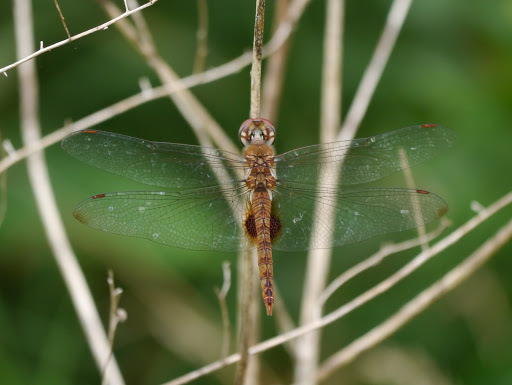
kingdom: Animalia
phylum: Arthropoda
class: Insecta
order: Odonata
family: Libellulidae
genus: Pantala
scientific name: Pantala hymenaea
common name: Spot-winged glider
